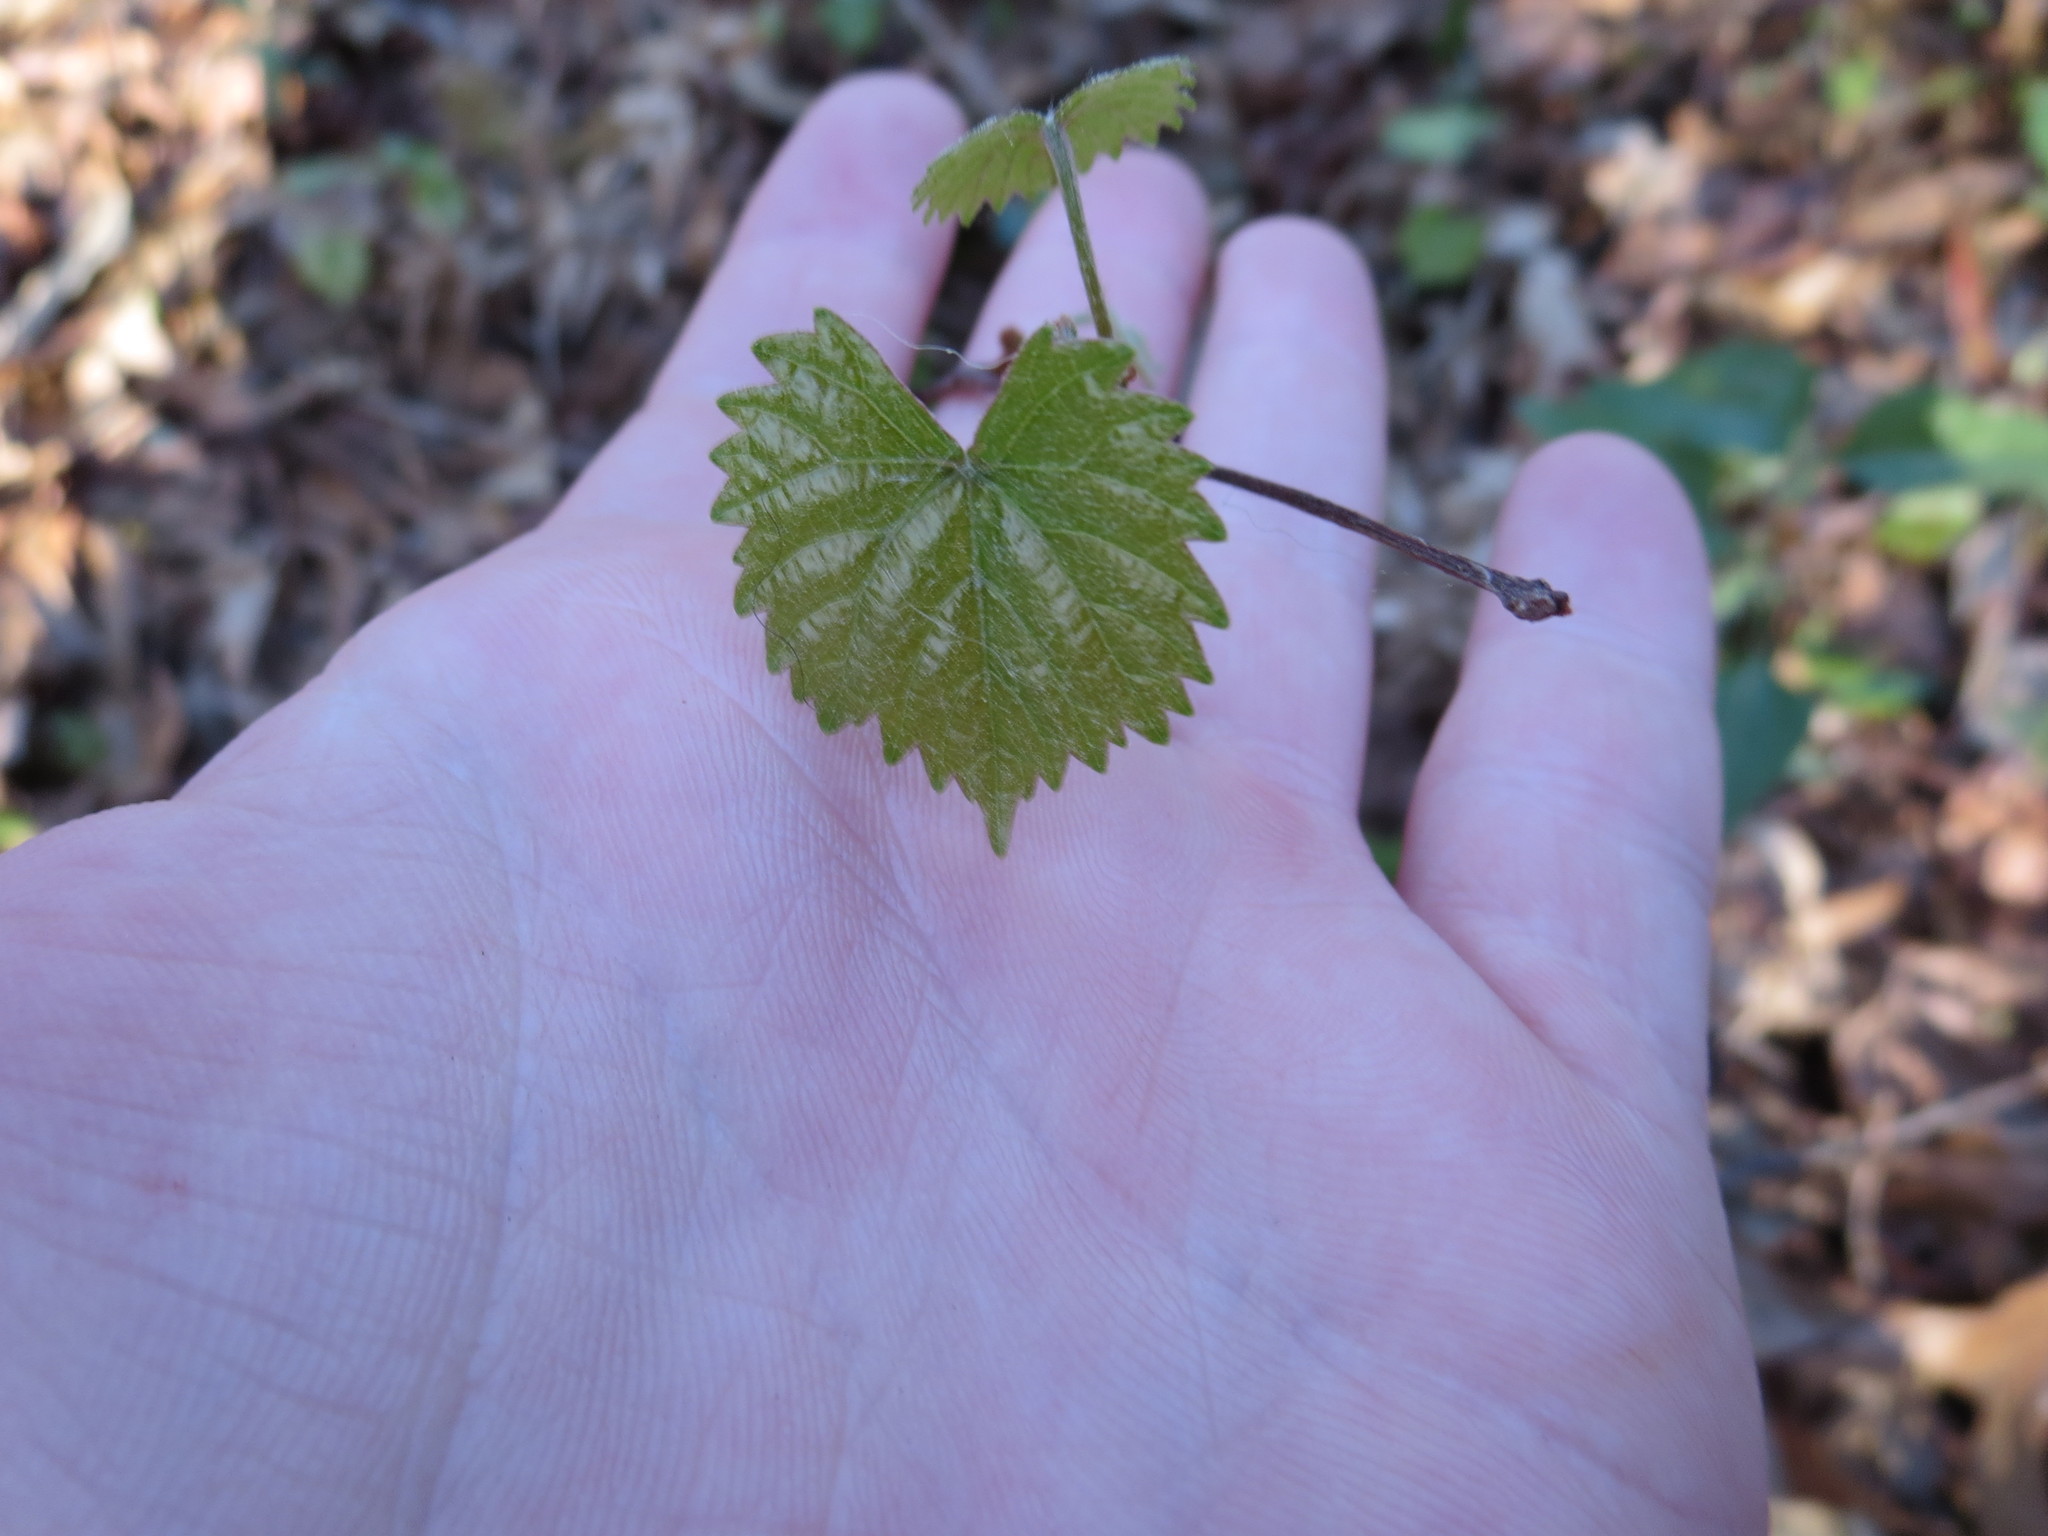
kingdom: Plantae
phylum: Tracheophyta
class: Magnoliopsida
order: Vitales
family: Vitaceae
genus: Vitis
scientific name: Vitis rotundifolia
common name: Muscadine grape
